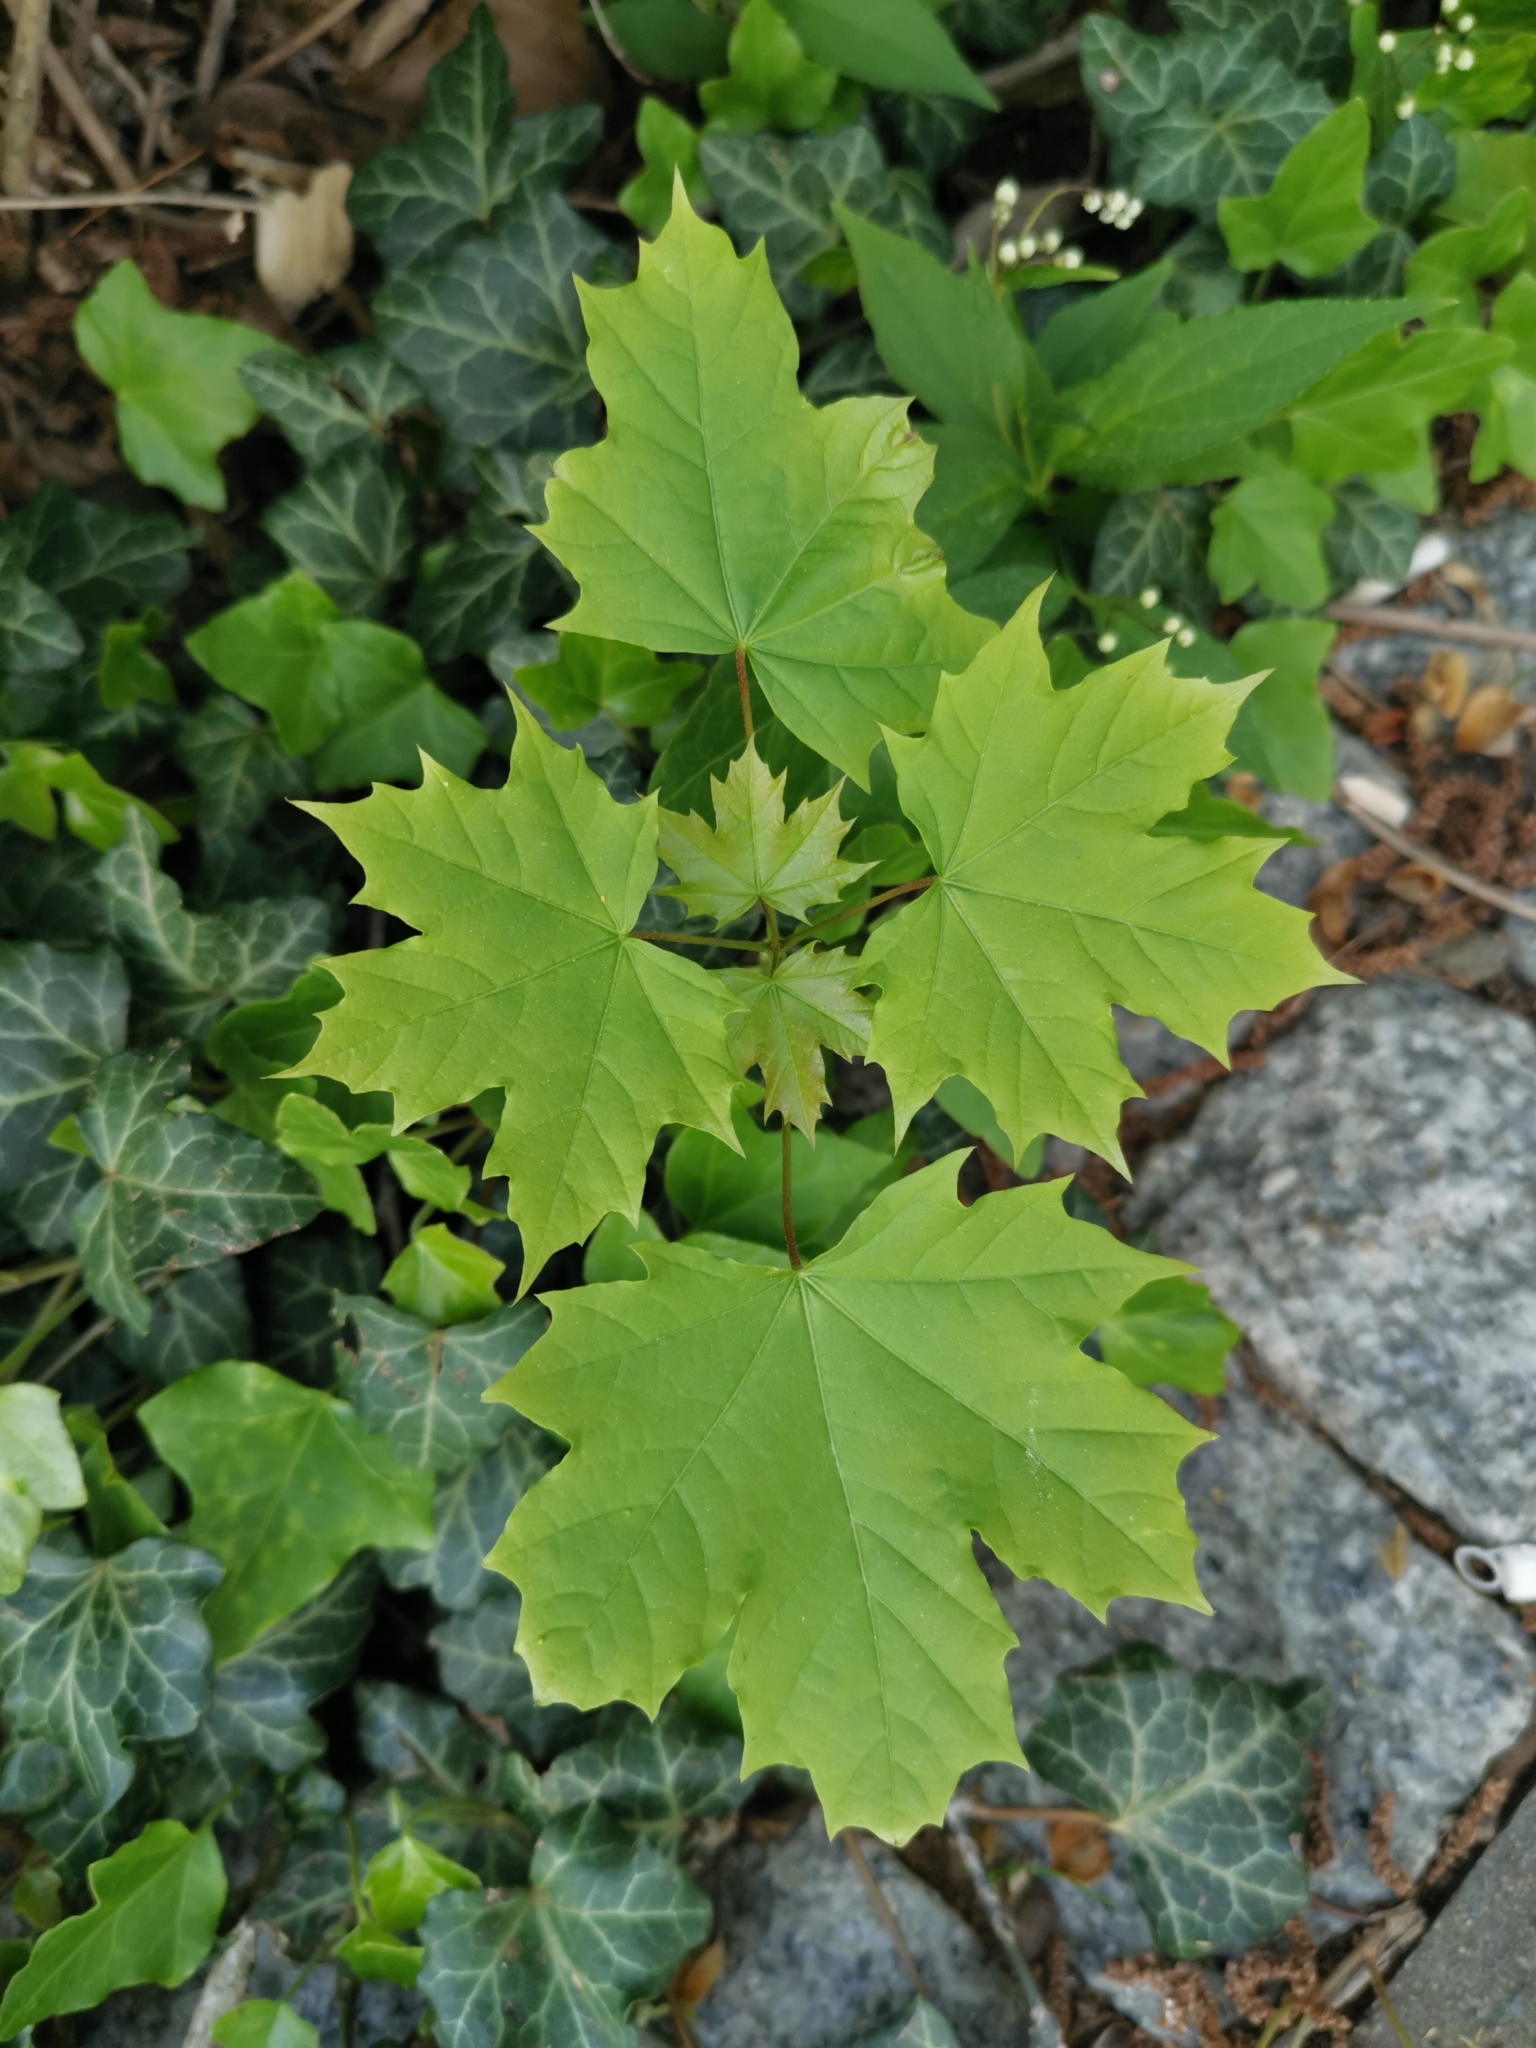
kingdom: Plantae
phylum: Tracheophyta
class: Magnoliopsida
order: Sapindales
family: Sapindaceae
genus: Acer
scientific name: Acer platanoides
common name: Norway maple
